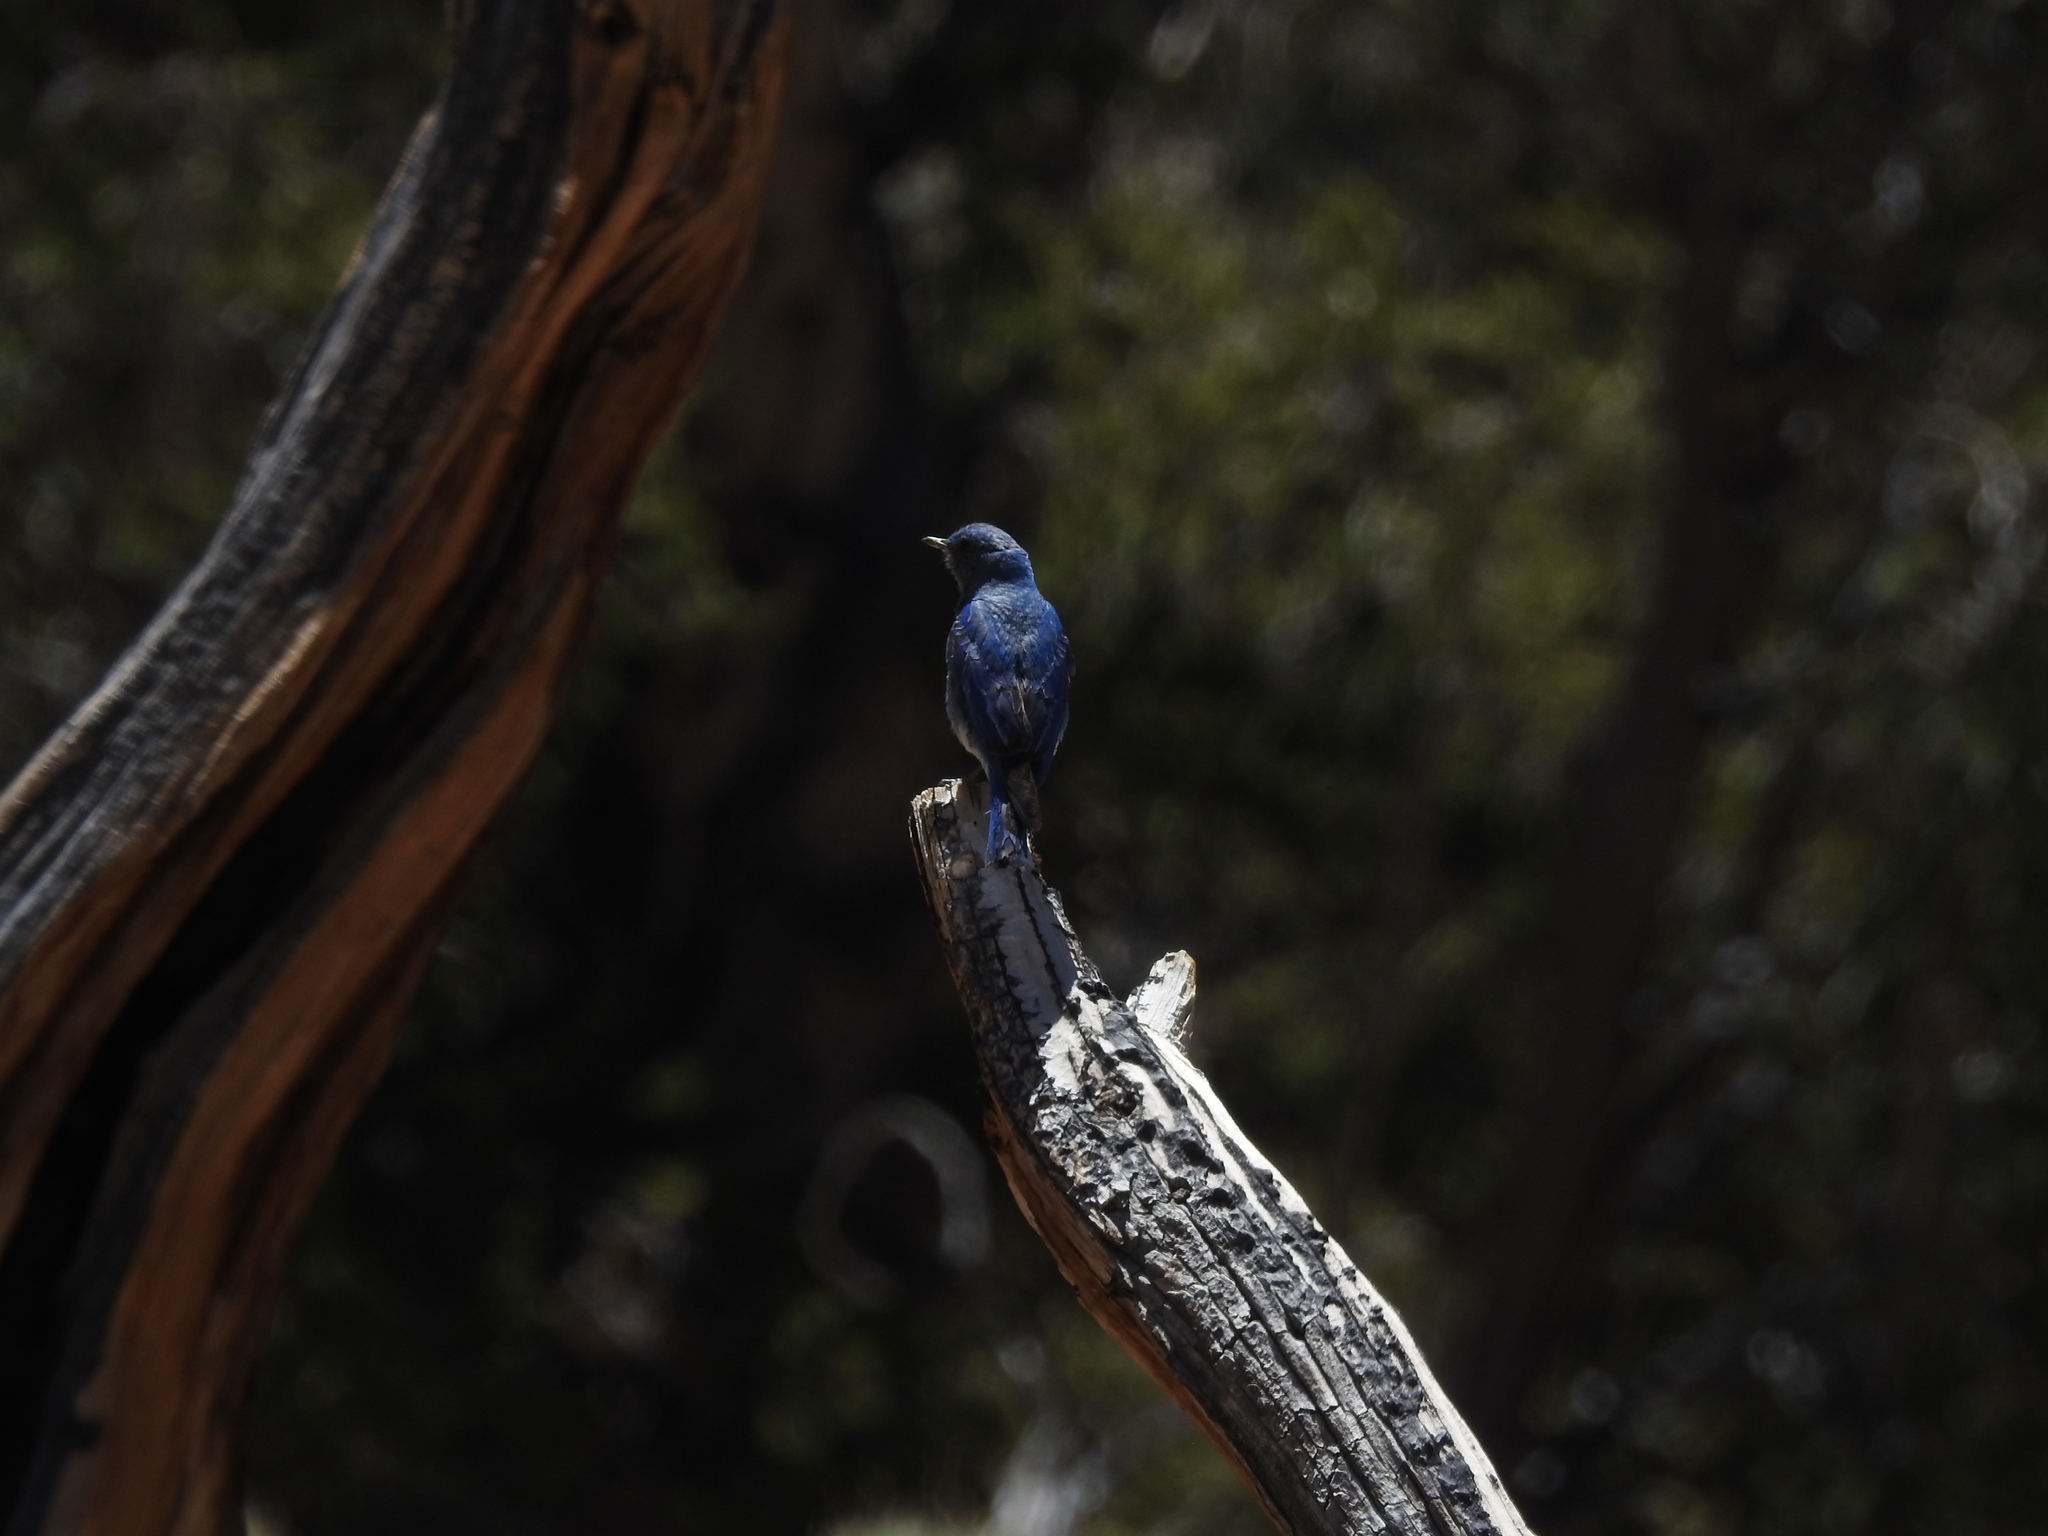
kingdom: Animalia
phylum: Chordata
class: Aves
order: Passeriformes
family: Turdidae
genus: Sialia
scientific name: Sialia currucoides
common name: Mountain bluebird
